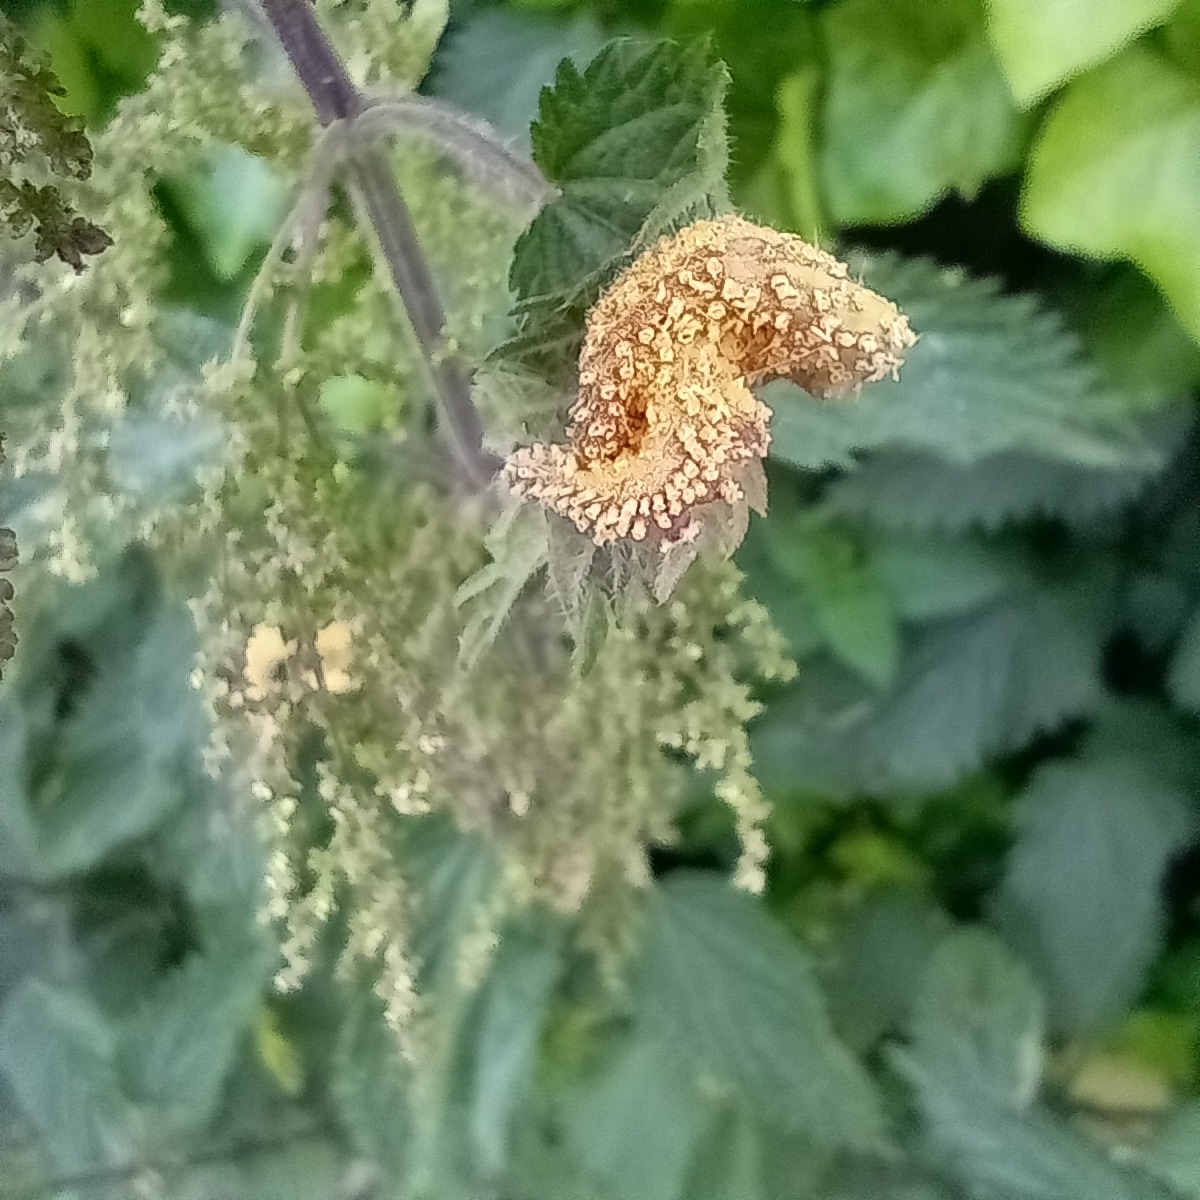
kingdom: Fungi
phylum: Basidiomycota
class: Pucciniomycetes
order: Pucciniales
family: Pucciniaceae
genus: Puccinia
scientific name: Puccinia urticata
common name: Nettle clustercup rust fungus
